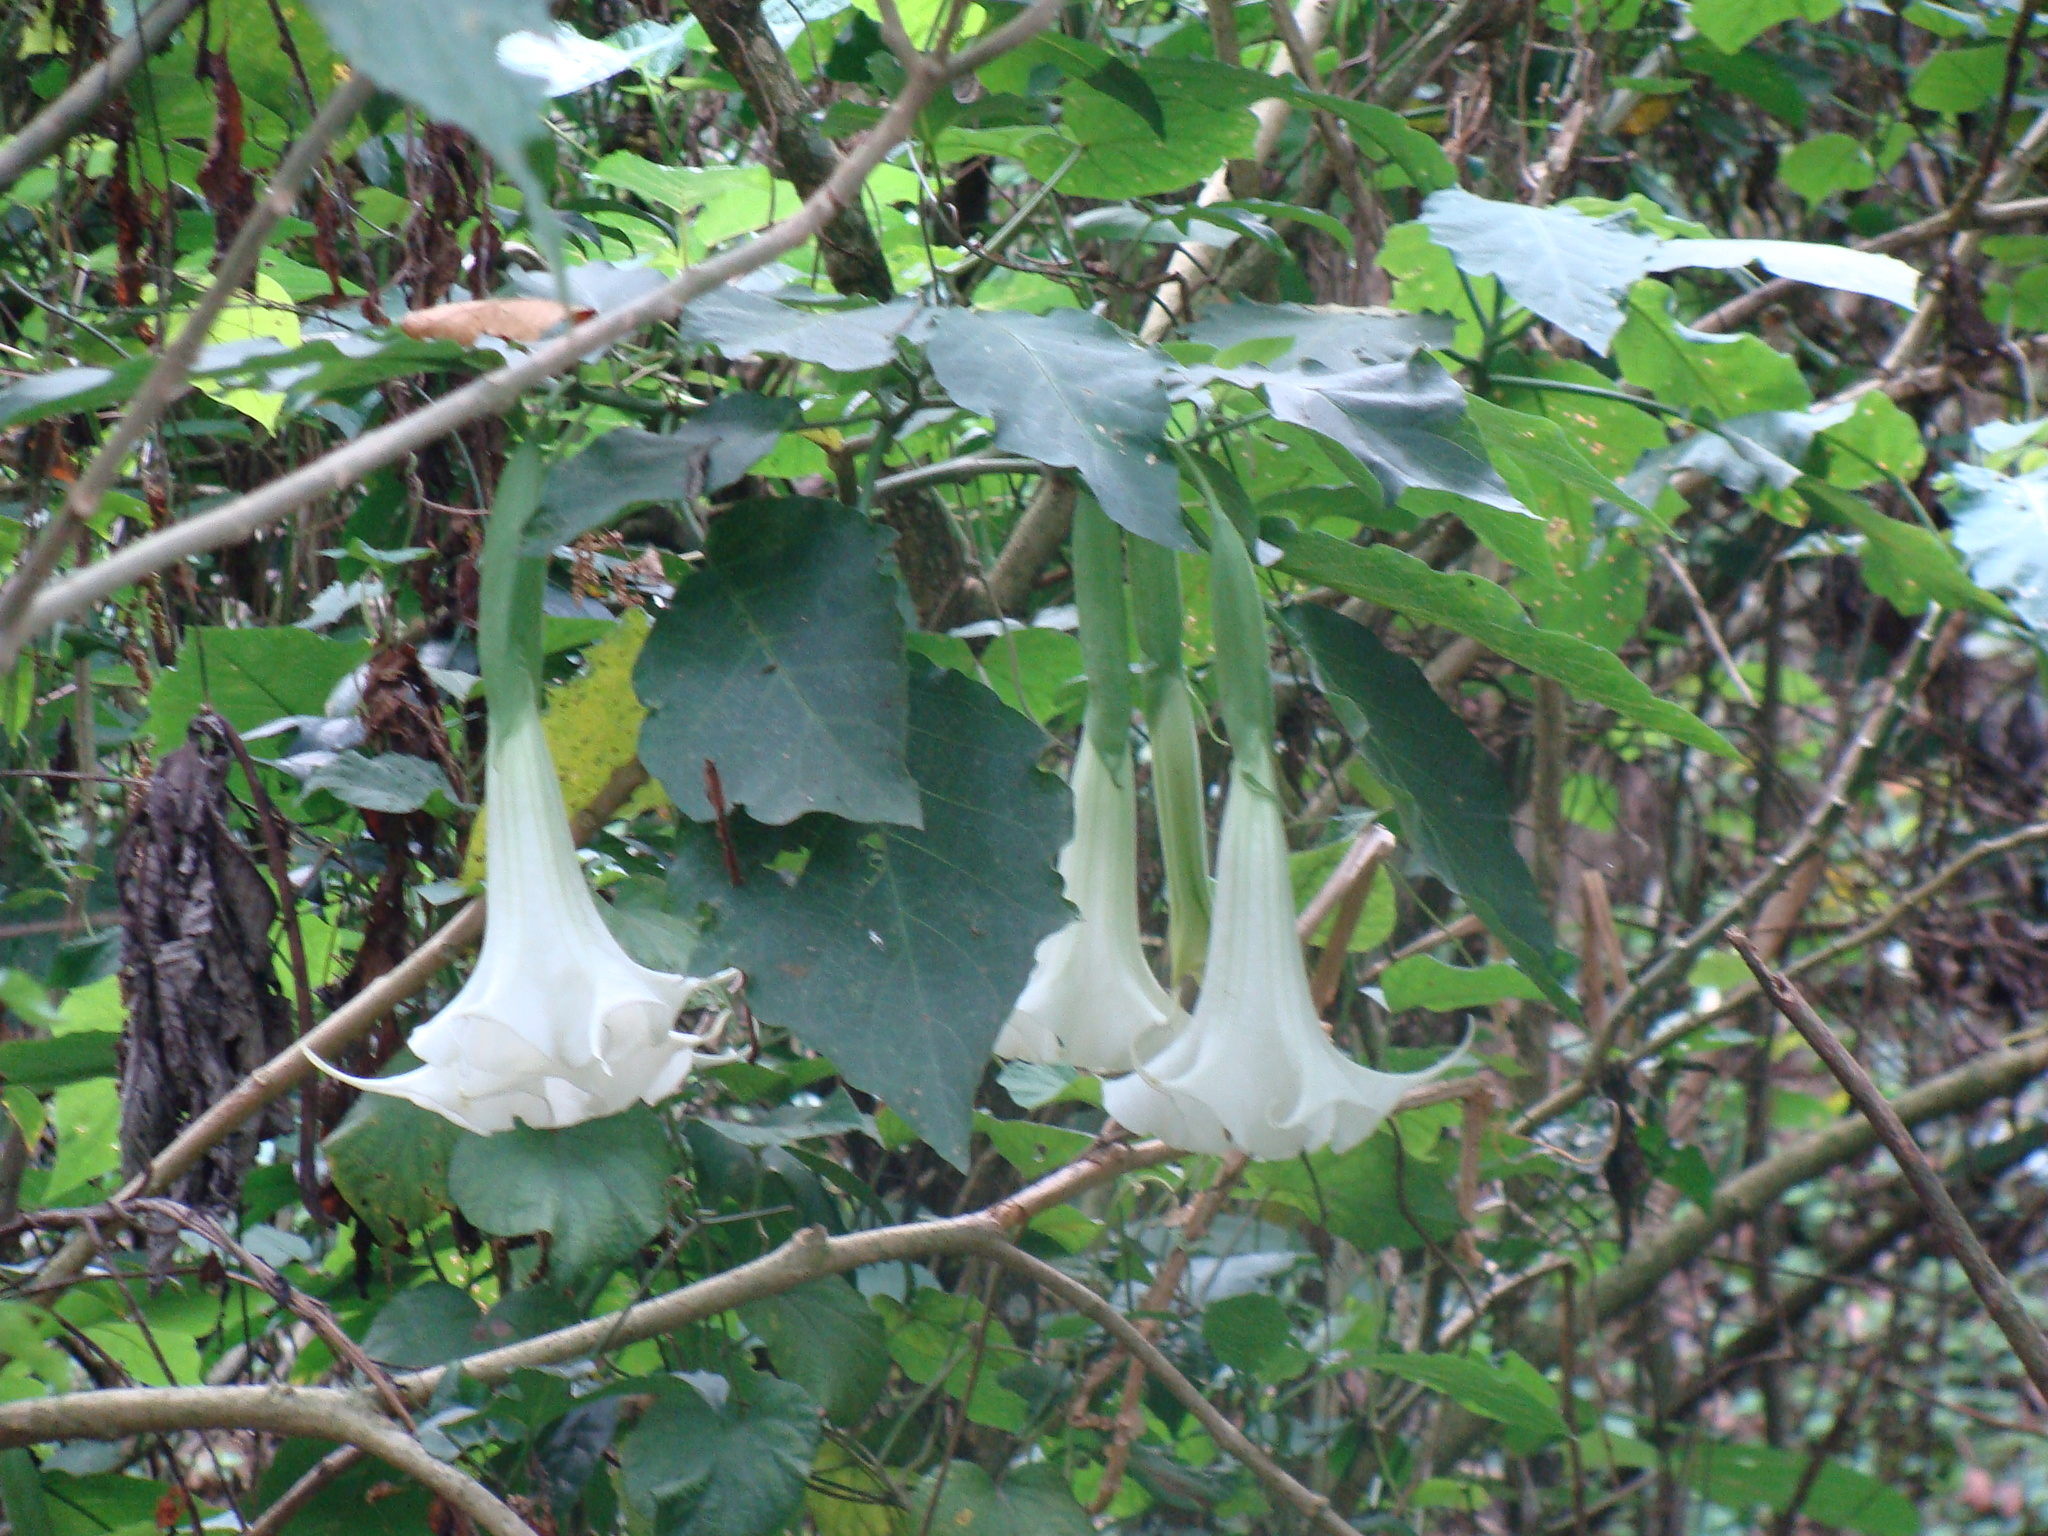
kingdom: Plantae
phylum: Tracheophyta
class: Magnoliopsida
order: Solanales
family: Solanaceae
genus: Brugmansia
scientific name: Brugmansia candida
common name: Angel's-trumpet
